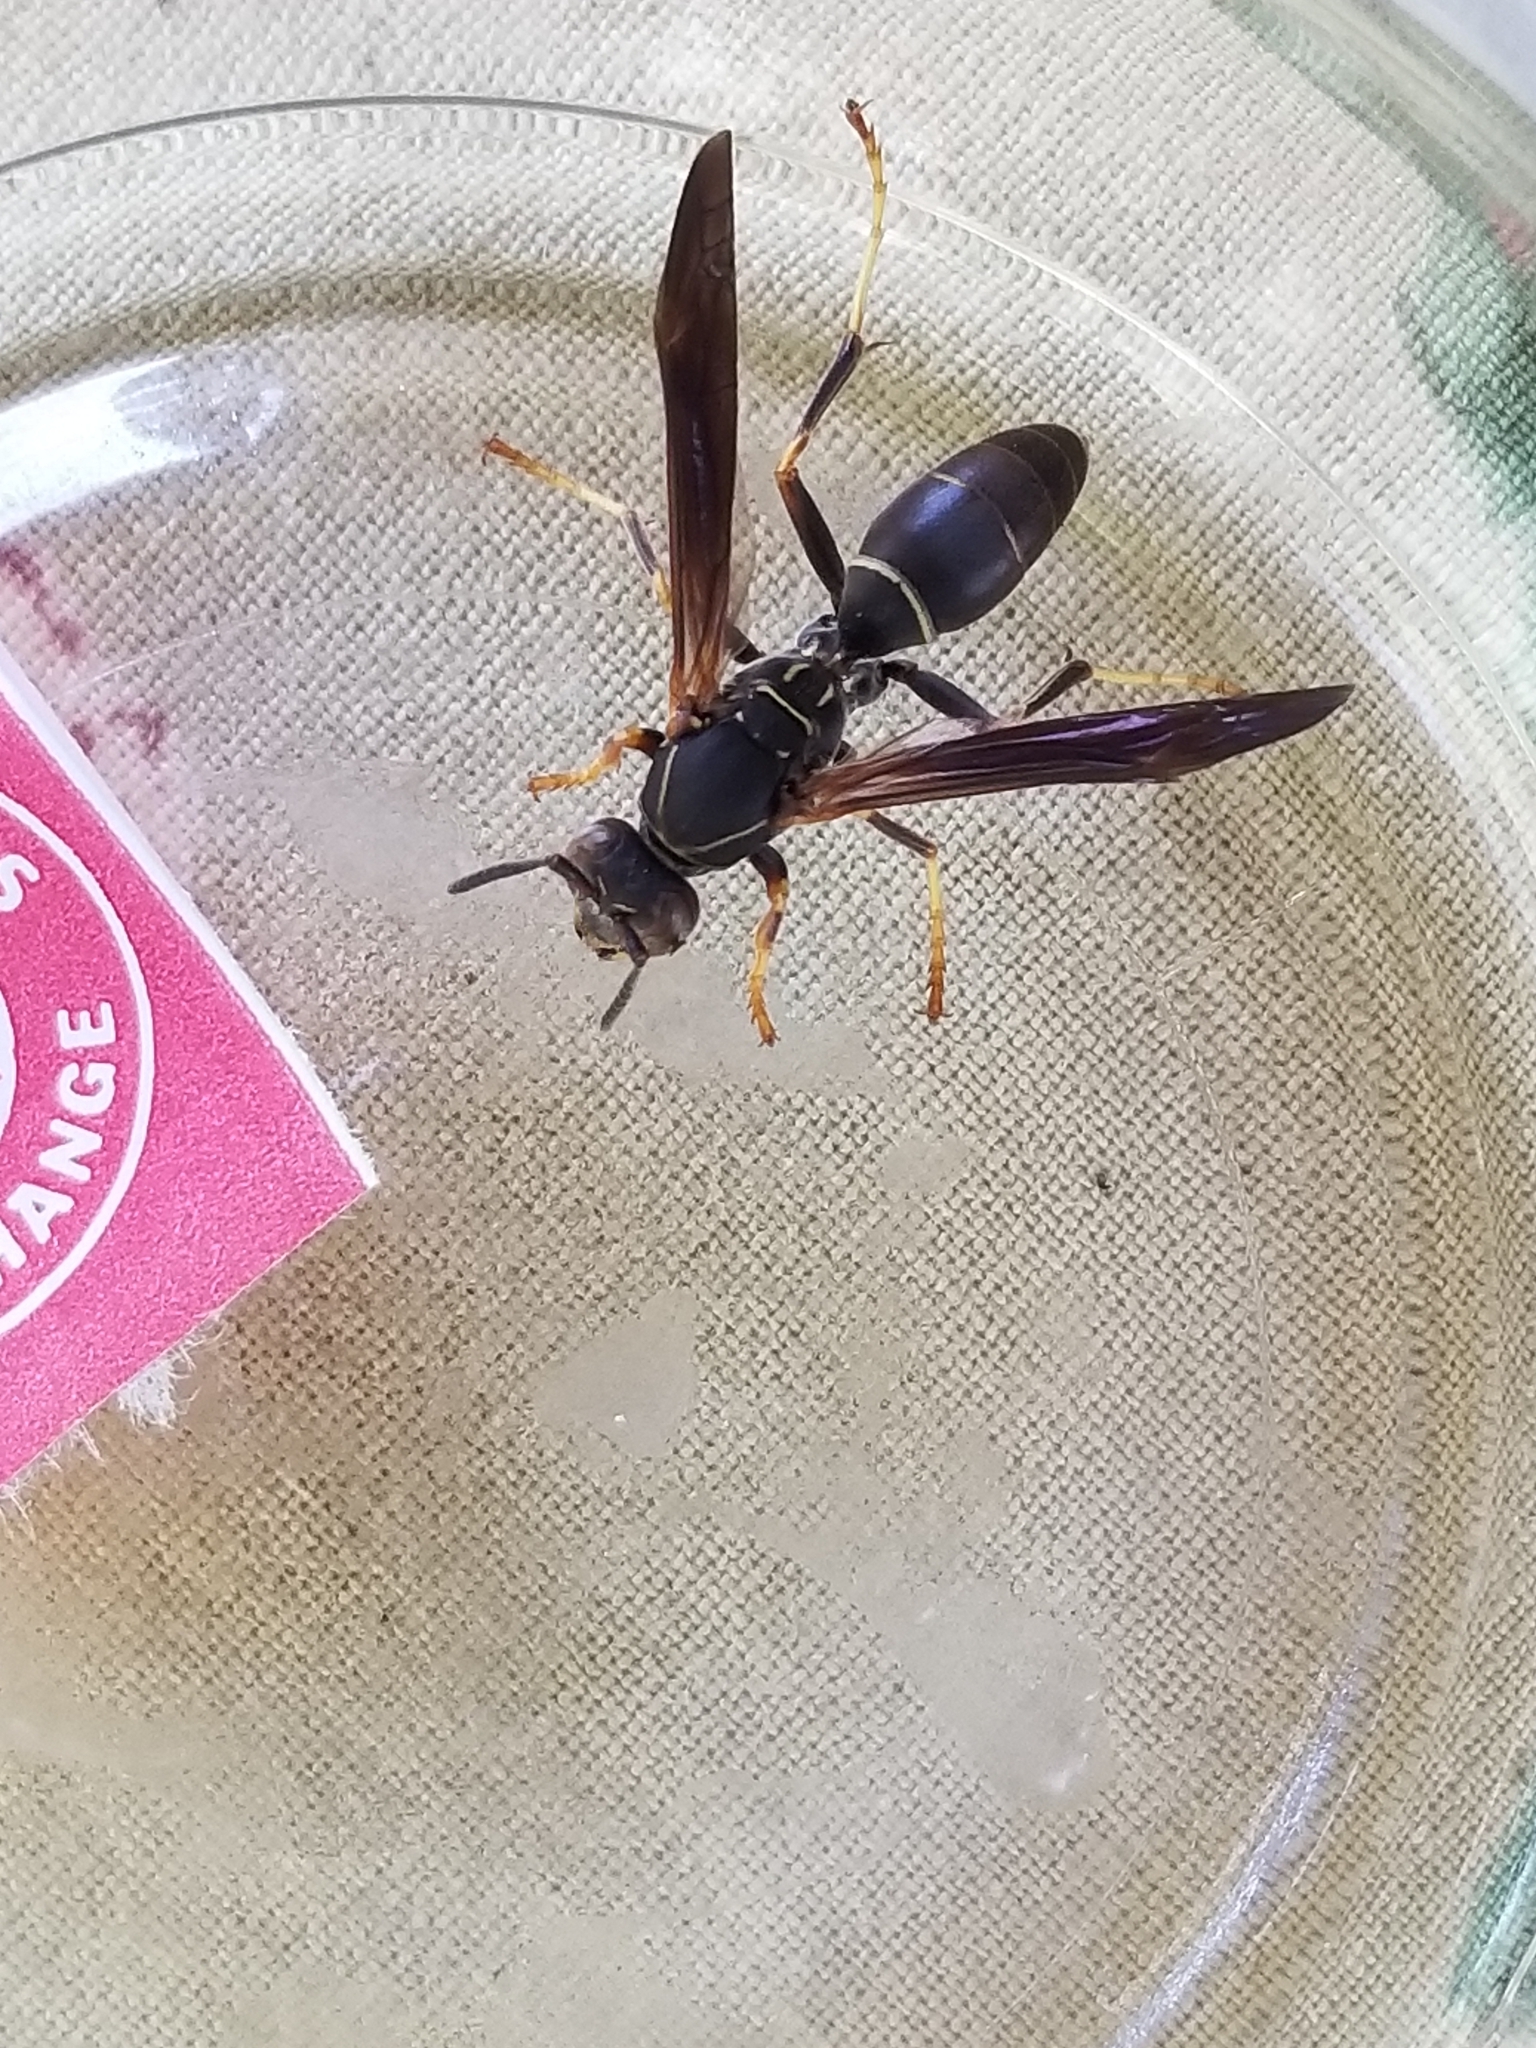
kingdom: Animalia
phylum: Arthropoda
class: Insecta
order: Hymenoptera
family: Eumenidae
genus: Polistes
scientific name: Polistes fuscatus
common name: Dark paper wasp
